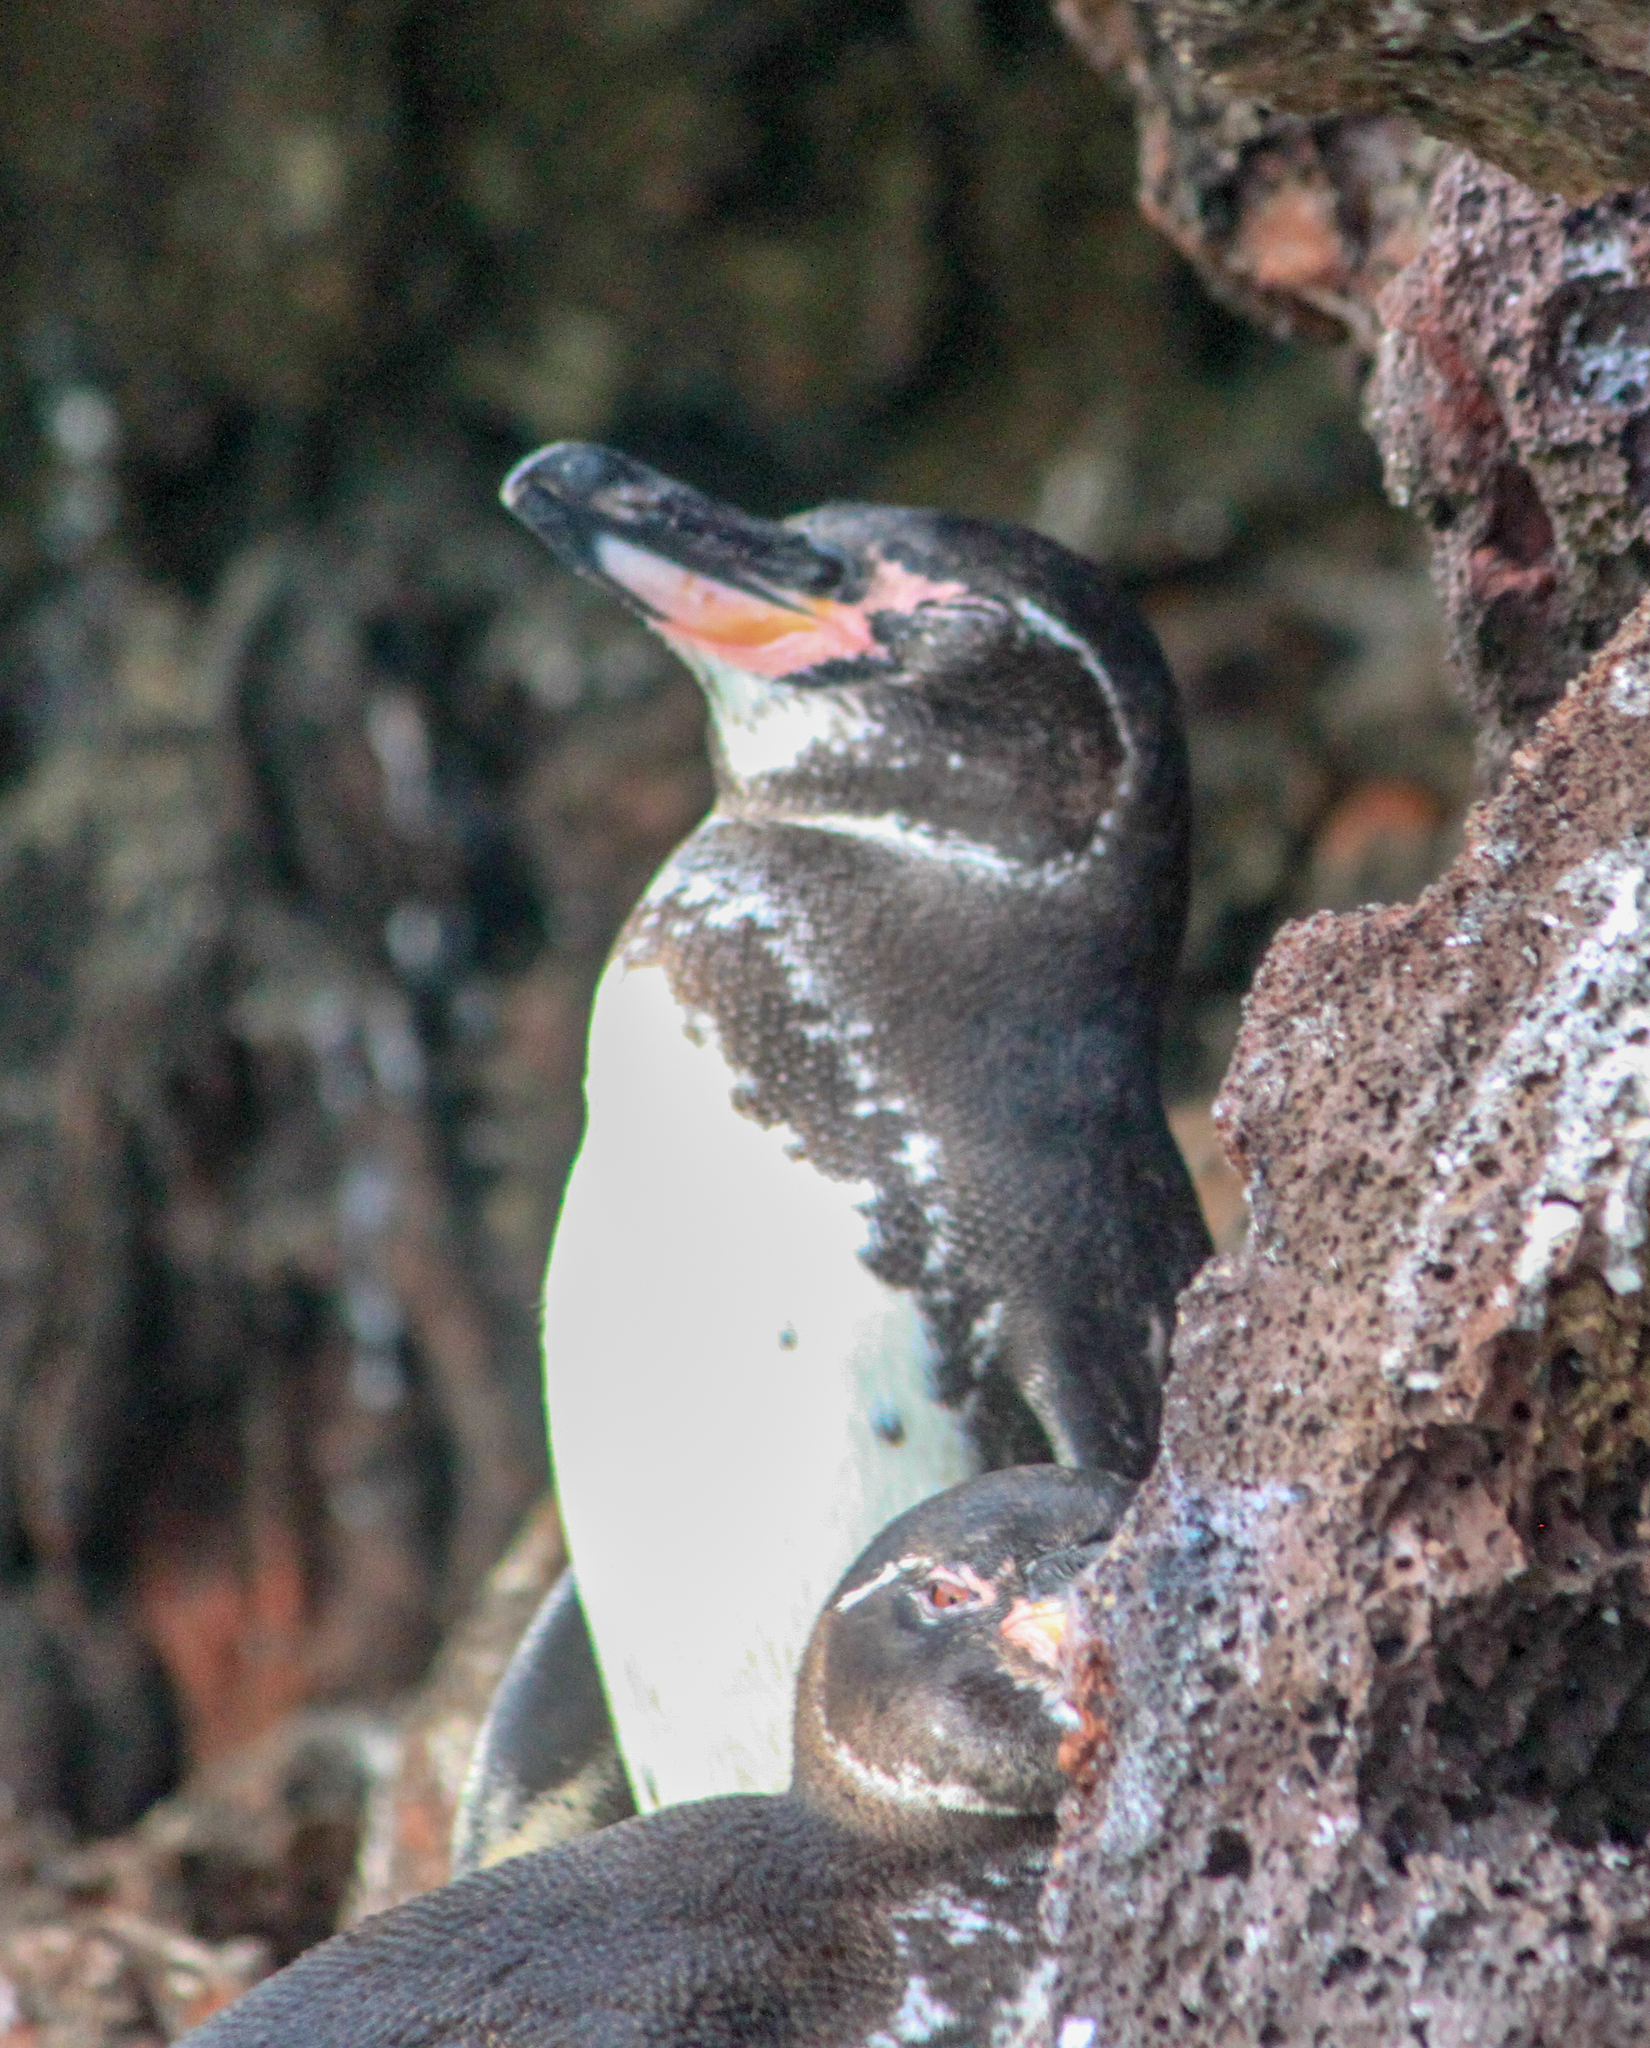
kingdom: Animalia
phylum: Chordata
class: Aves
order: Sphenisciformes
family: Spheniscidae
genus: Spheniscus
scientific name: Spheniscus mendiculus
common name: Galapagos penguin
